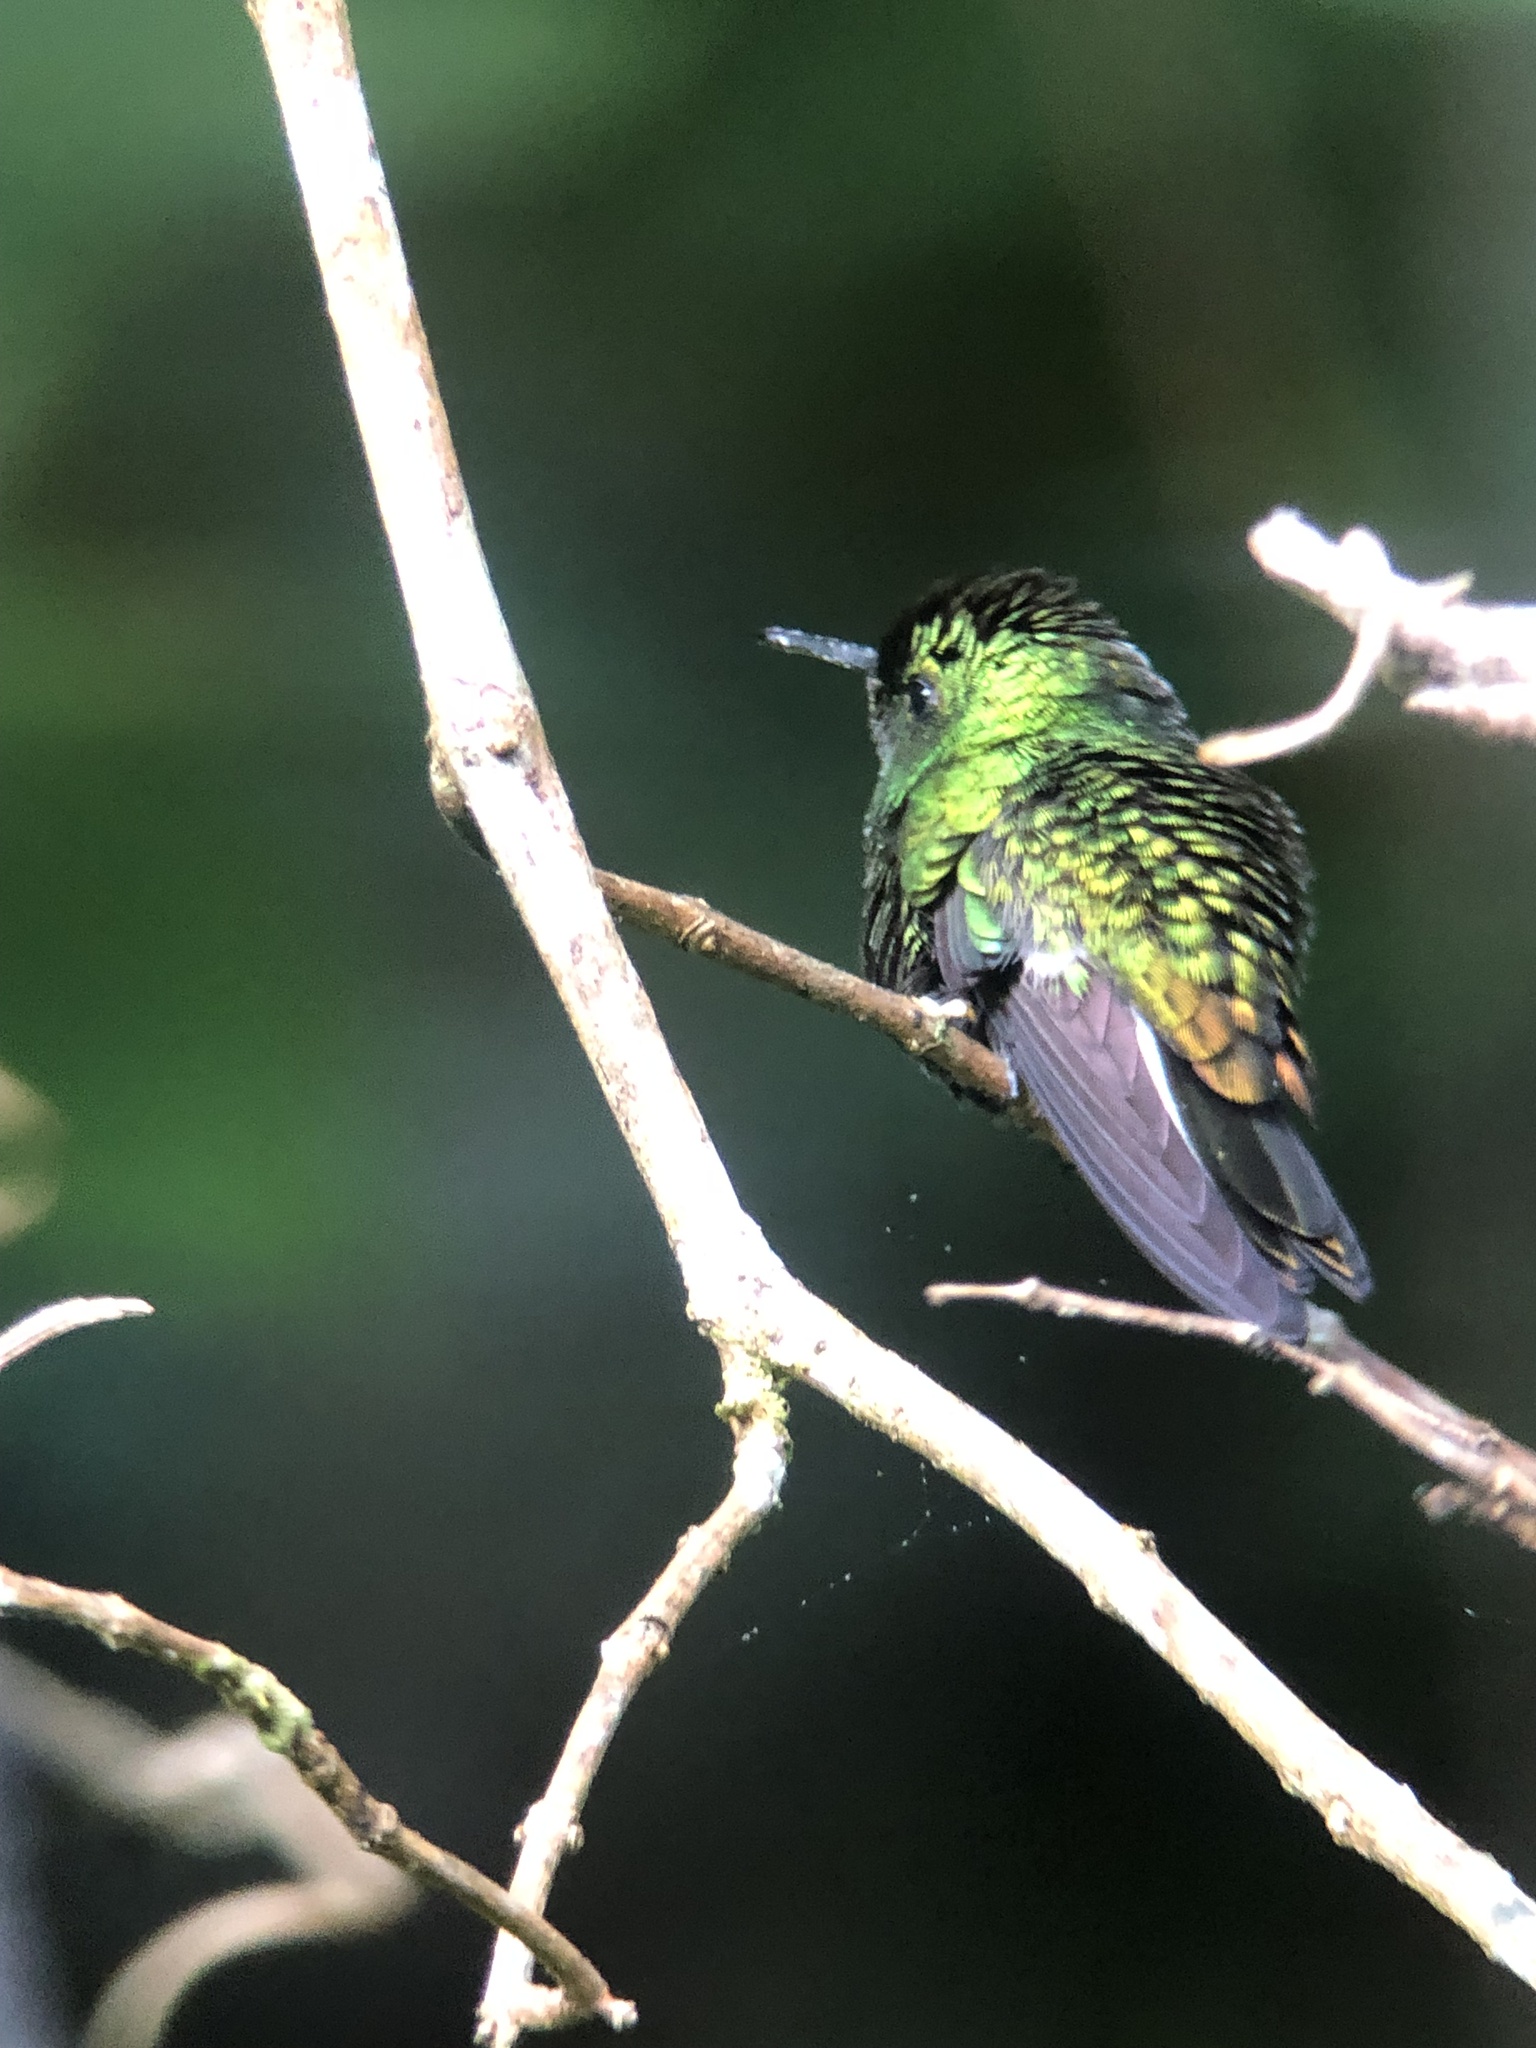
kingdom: Animalia
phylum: Chordata
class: Aves
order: Apodiformes
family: Trochilidae
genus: Eupherusa
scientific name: Eupherusa eximia
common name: Stripe-tailed hummingbird
